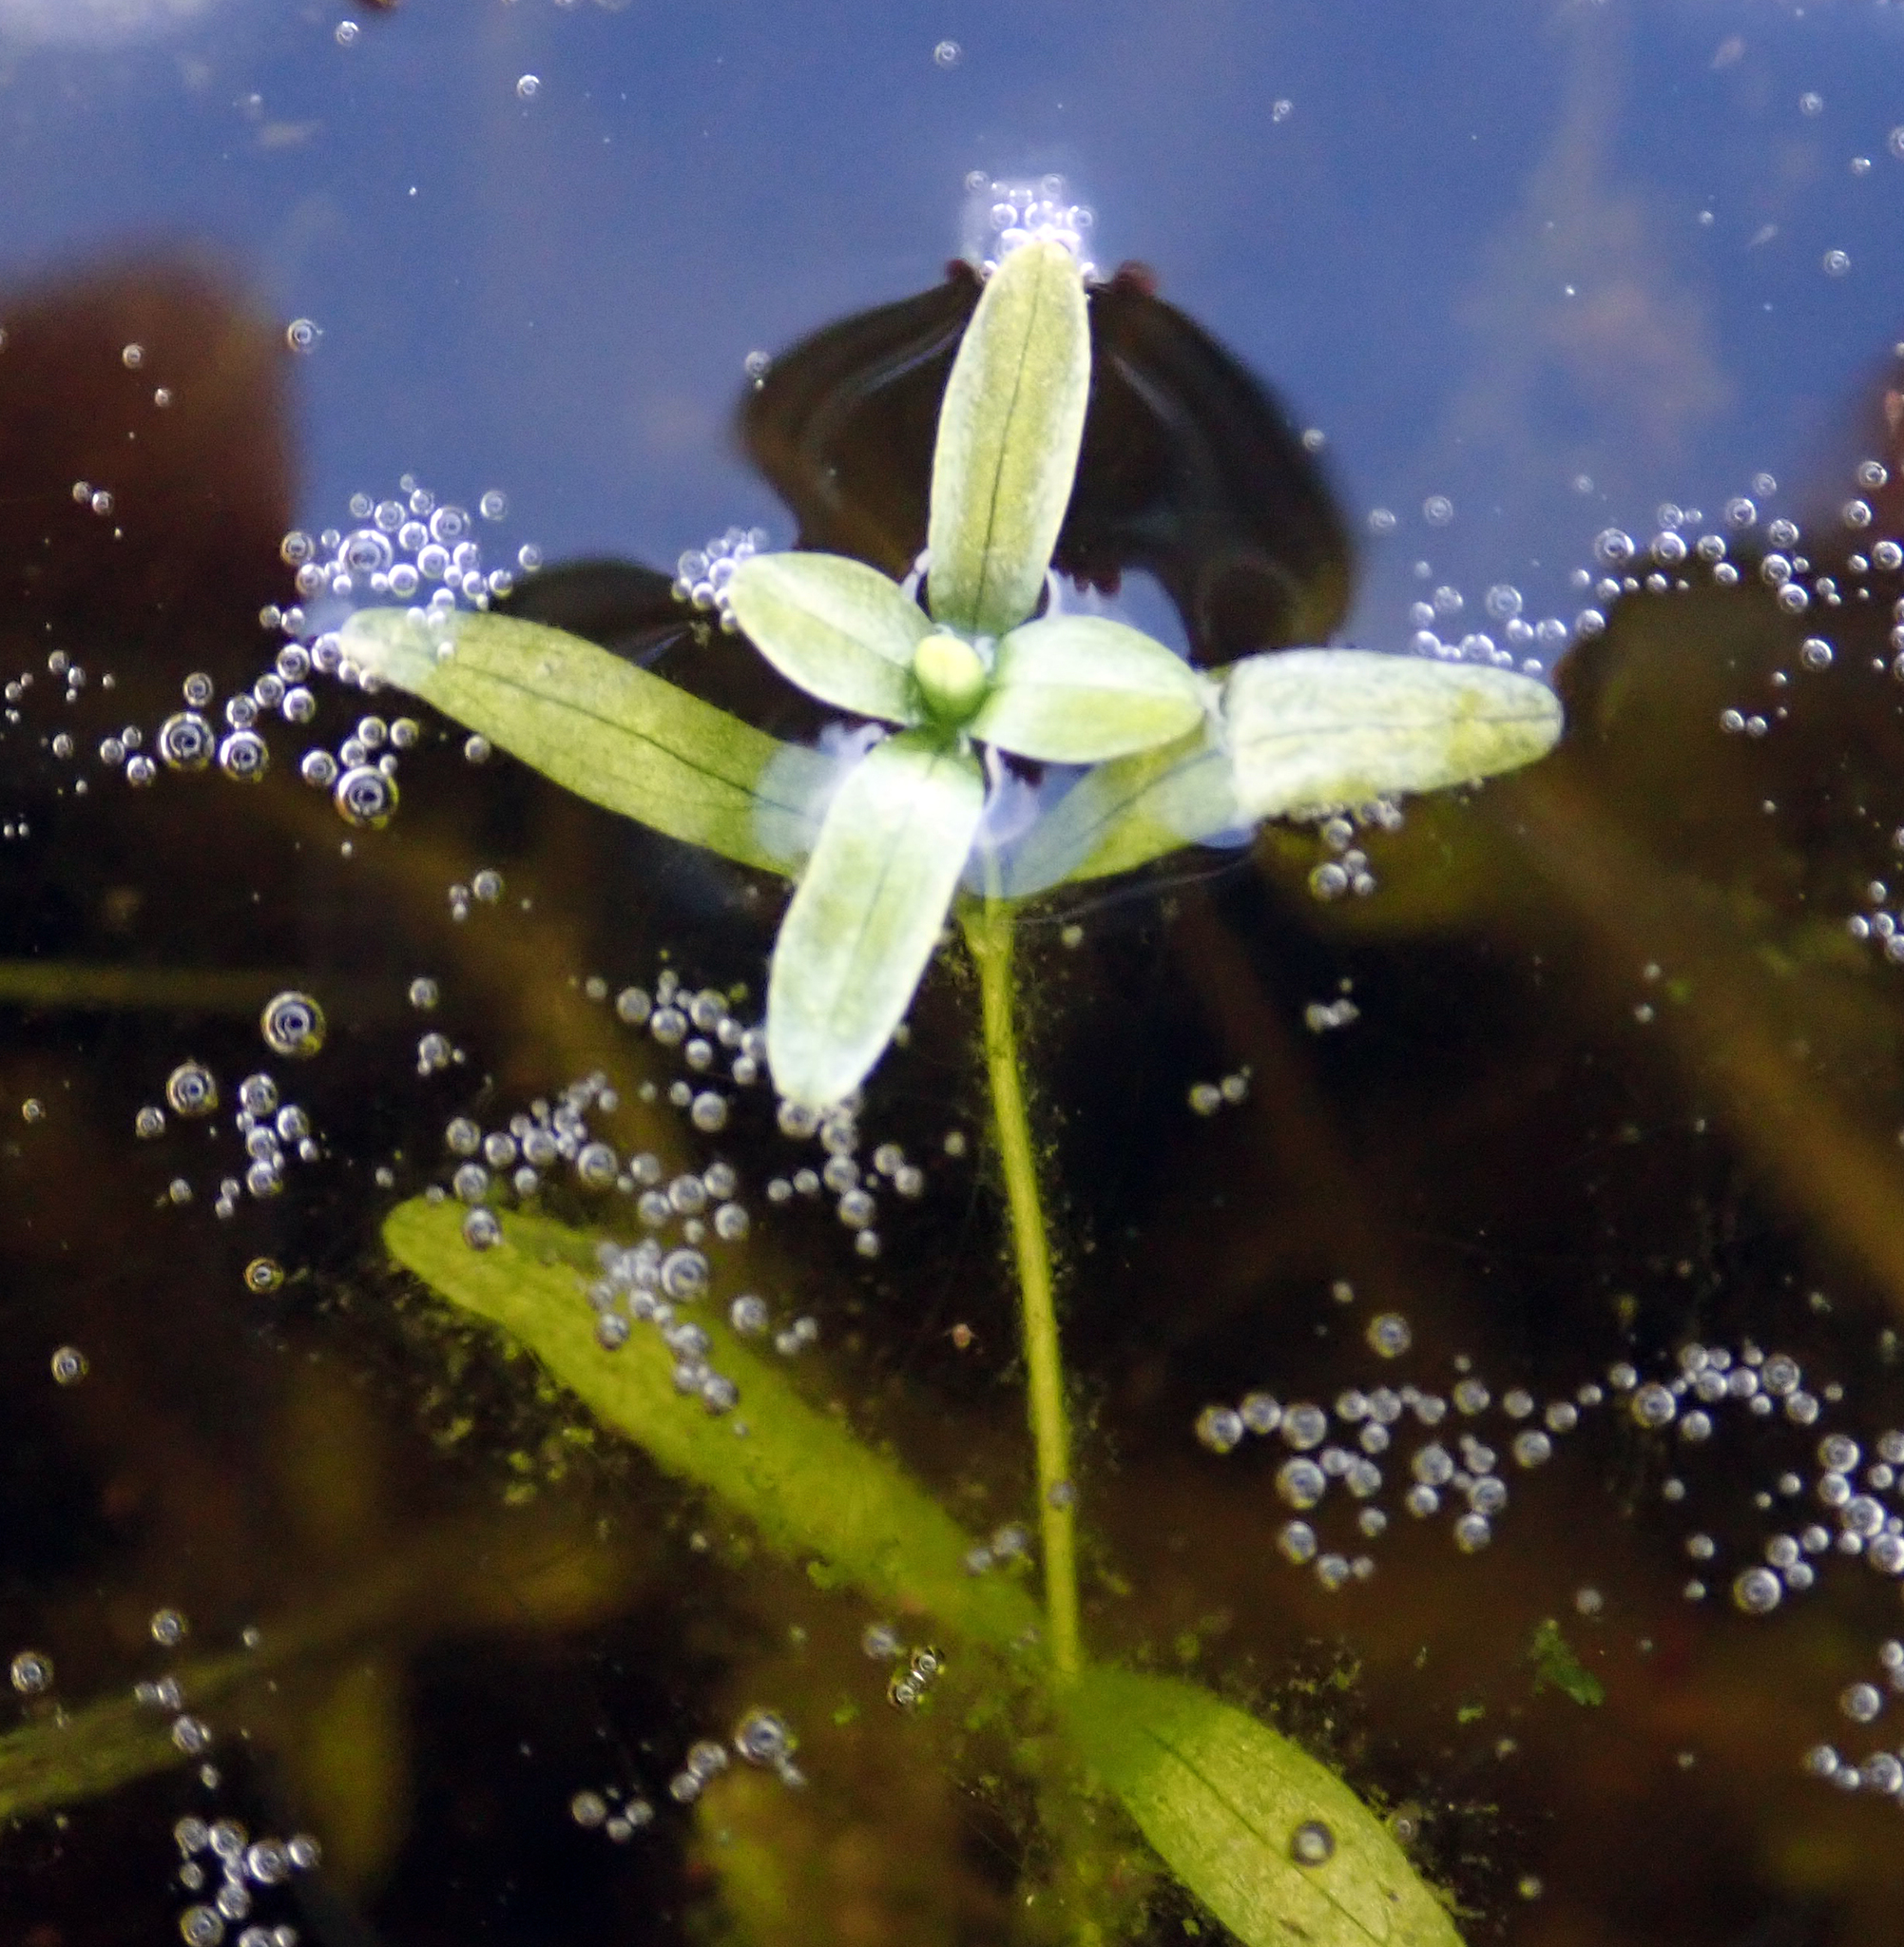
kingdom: Plantae
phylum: Tracheophyta
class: Magnoliopsida
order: Lamiales
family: Plantaginaceae
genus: Callitriche
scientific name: Callitriche heterophylla
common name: Two-headed water-starwort
